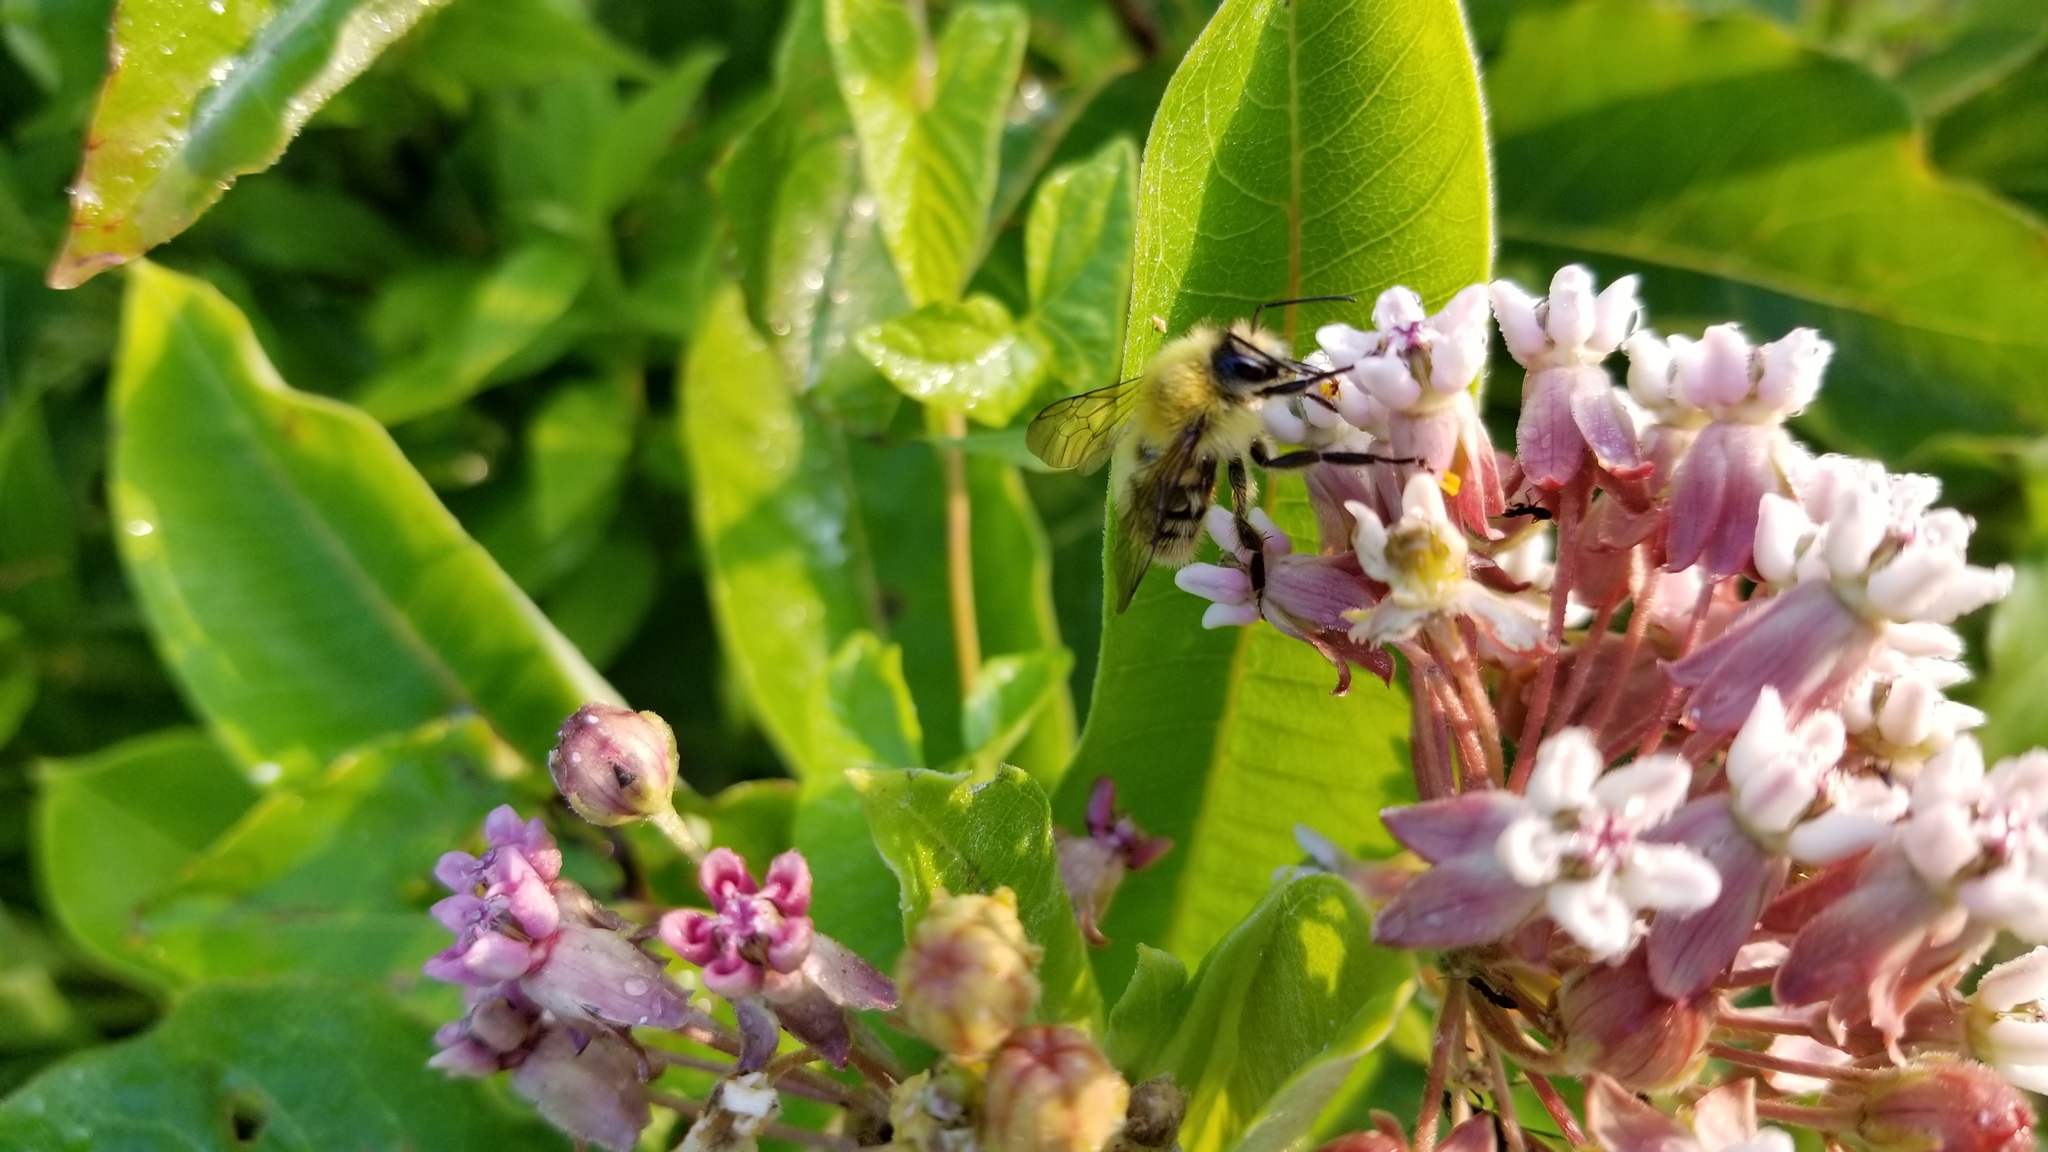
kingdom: Animalia
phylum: Arthropoda
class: Insecta
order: Hymenoptera
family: Apidae
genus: Bombus
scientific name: Bombus perplexus
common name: Confusing bumble bee
